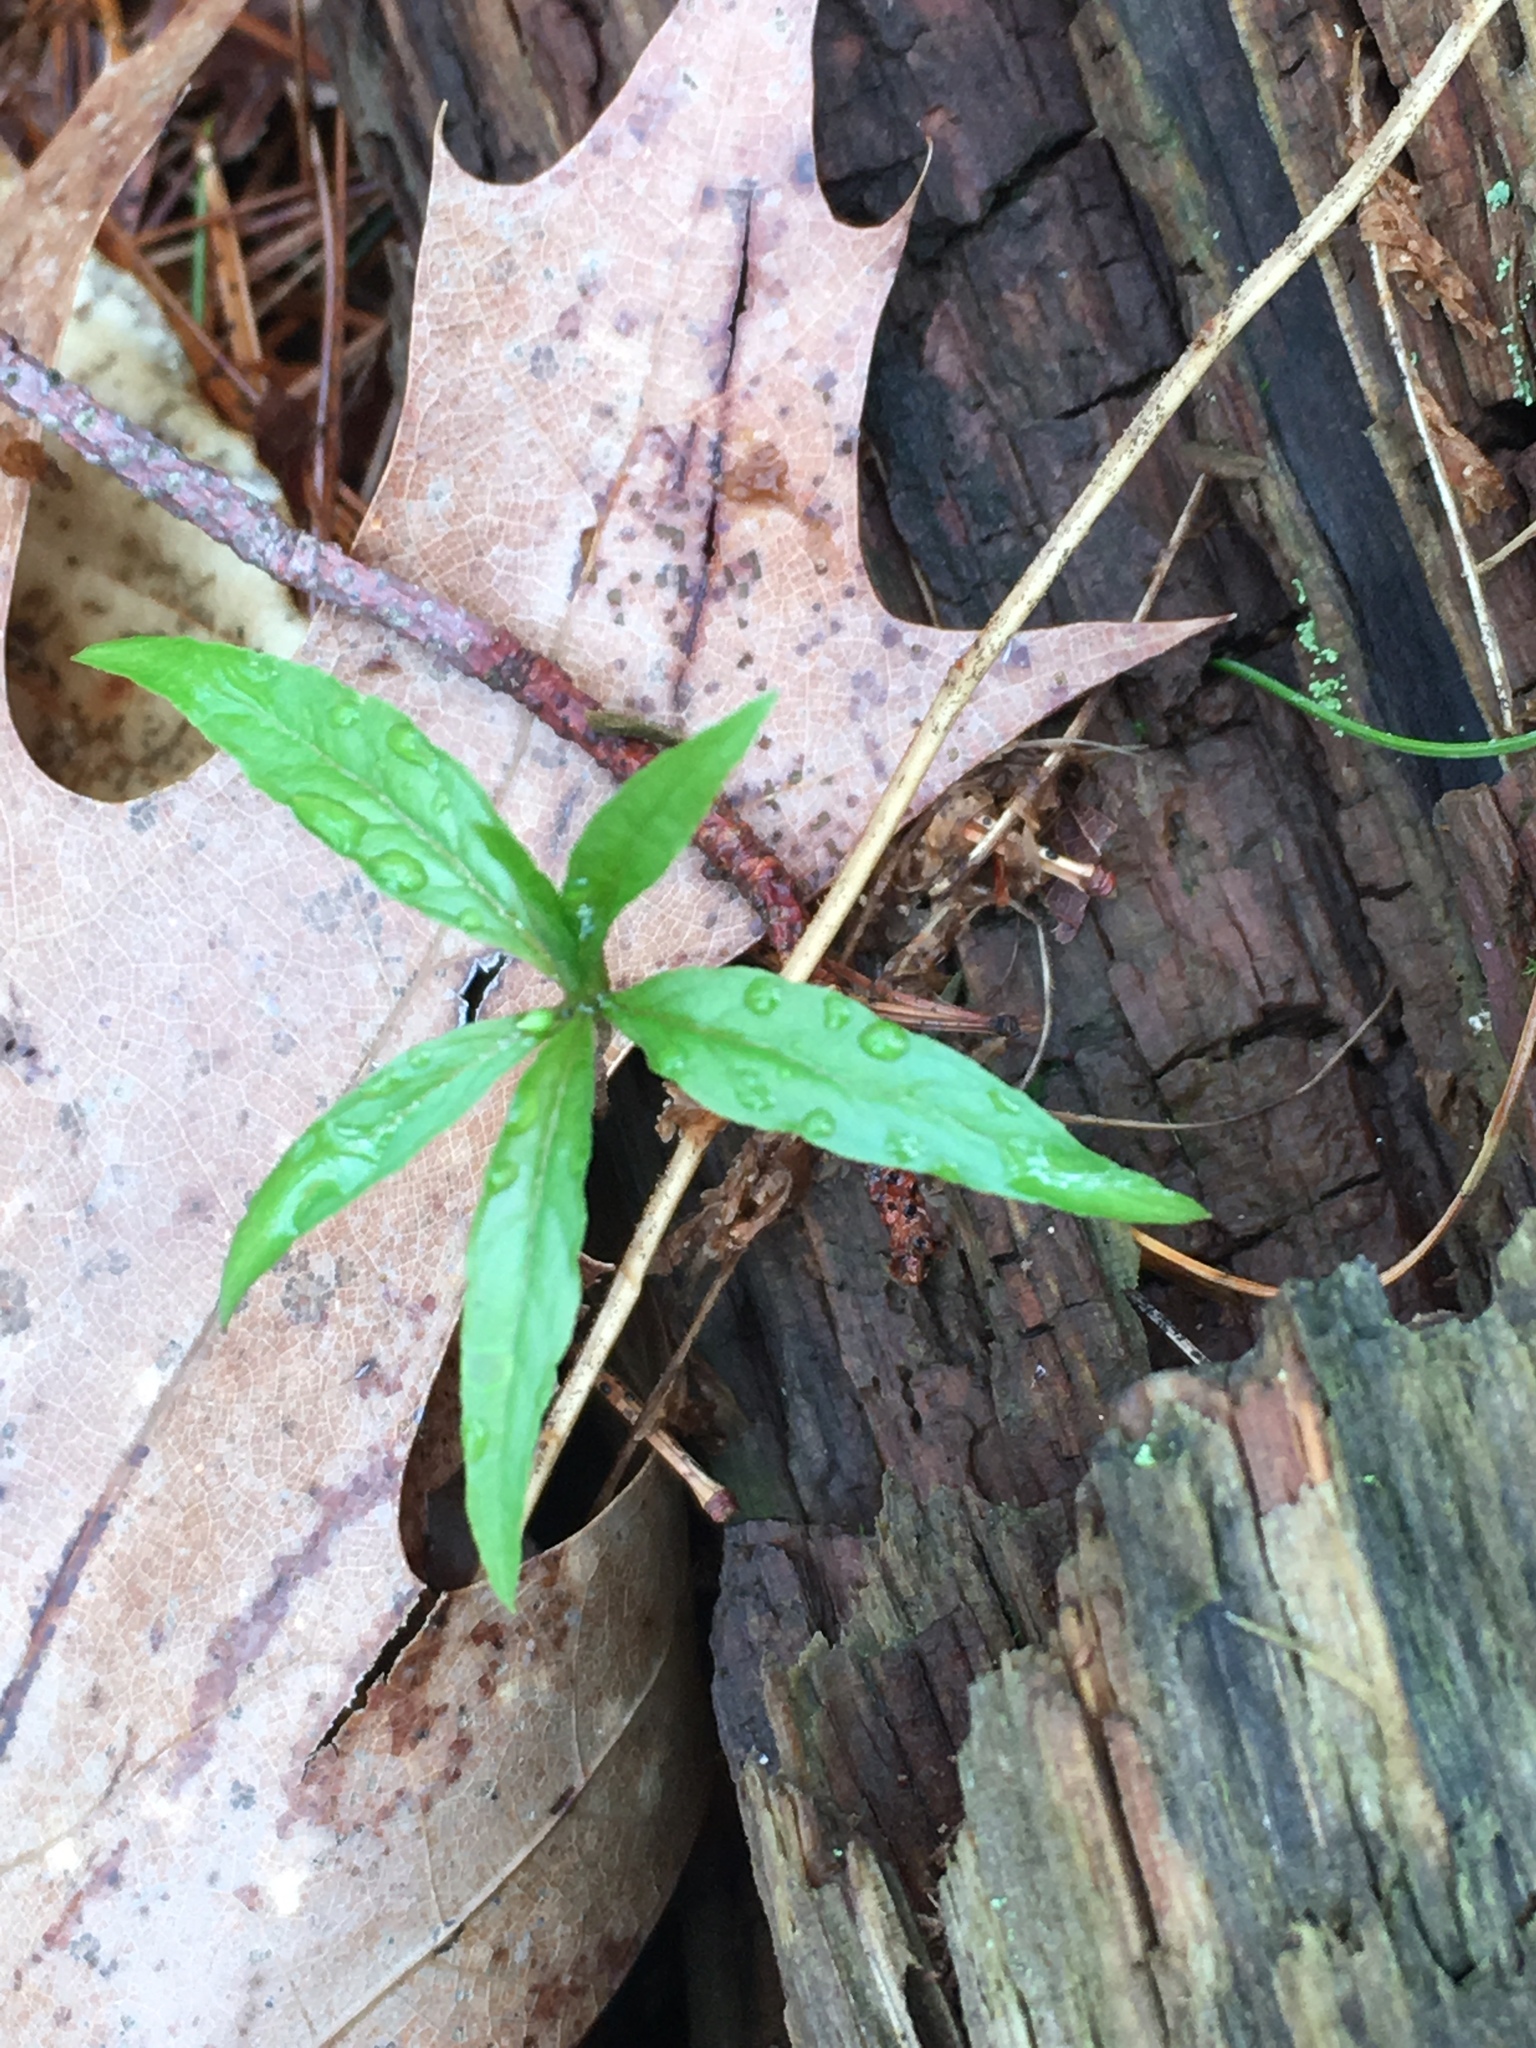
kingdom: Plantae
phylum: Tracheophyta
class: Magnoliopsida
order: Ericales
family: Primulaceae
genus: Lysimachia
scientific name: Lysimachia borealis
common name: American starflower
